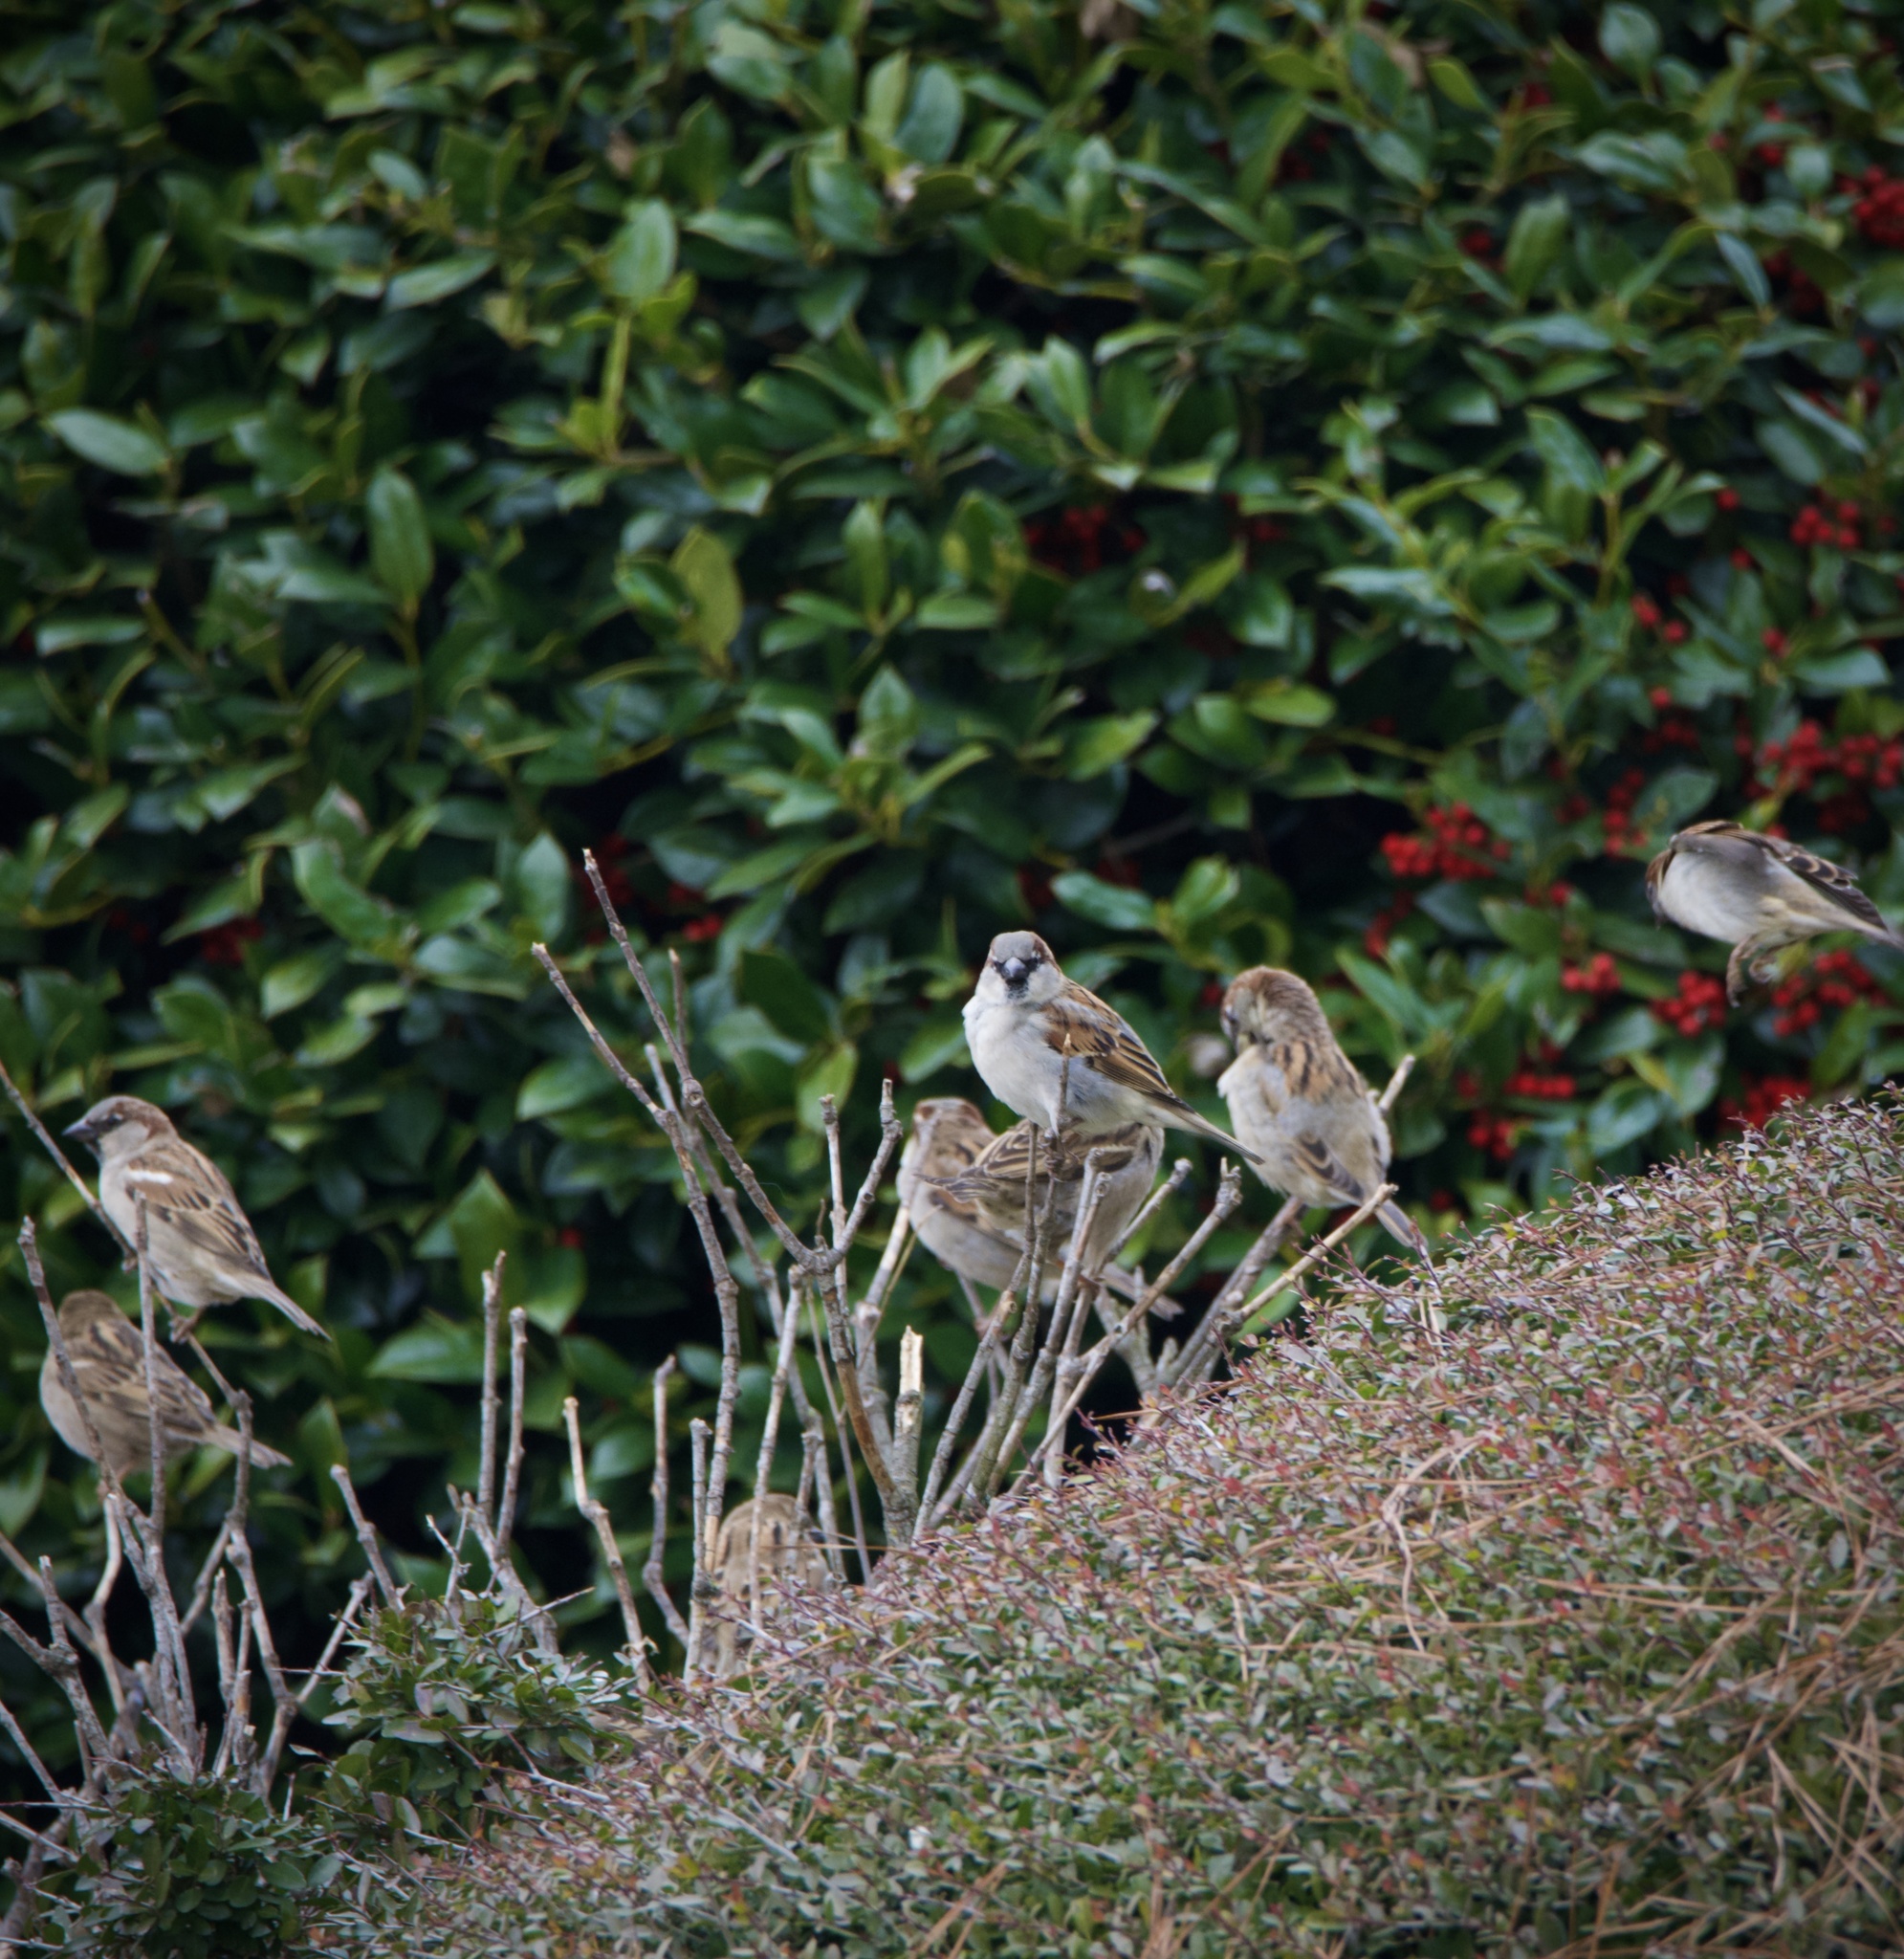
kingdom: Animalia
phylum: Chordata
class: Aves
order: Passeriformes
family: Passeridae
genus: Passer
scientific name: Passer domesticus
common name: House sparrow
